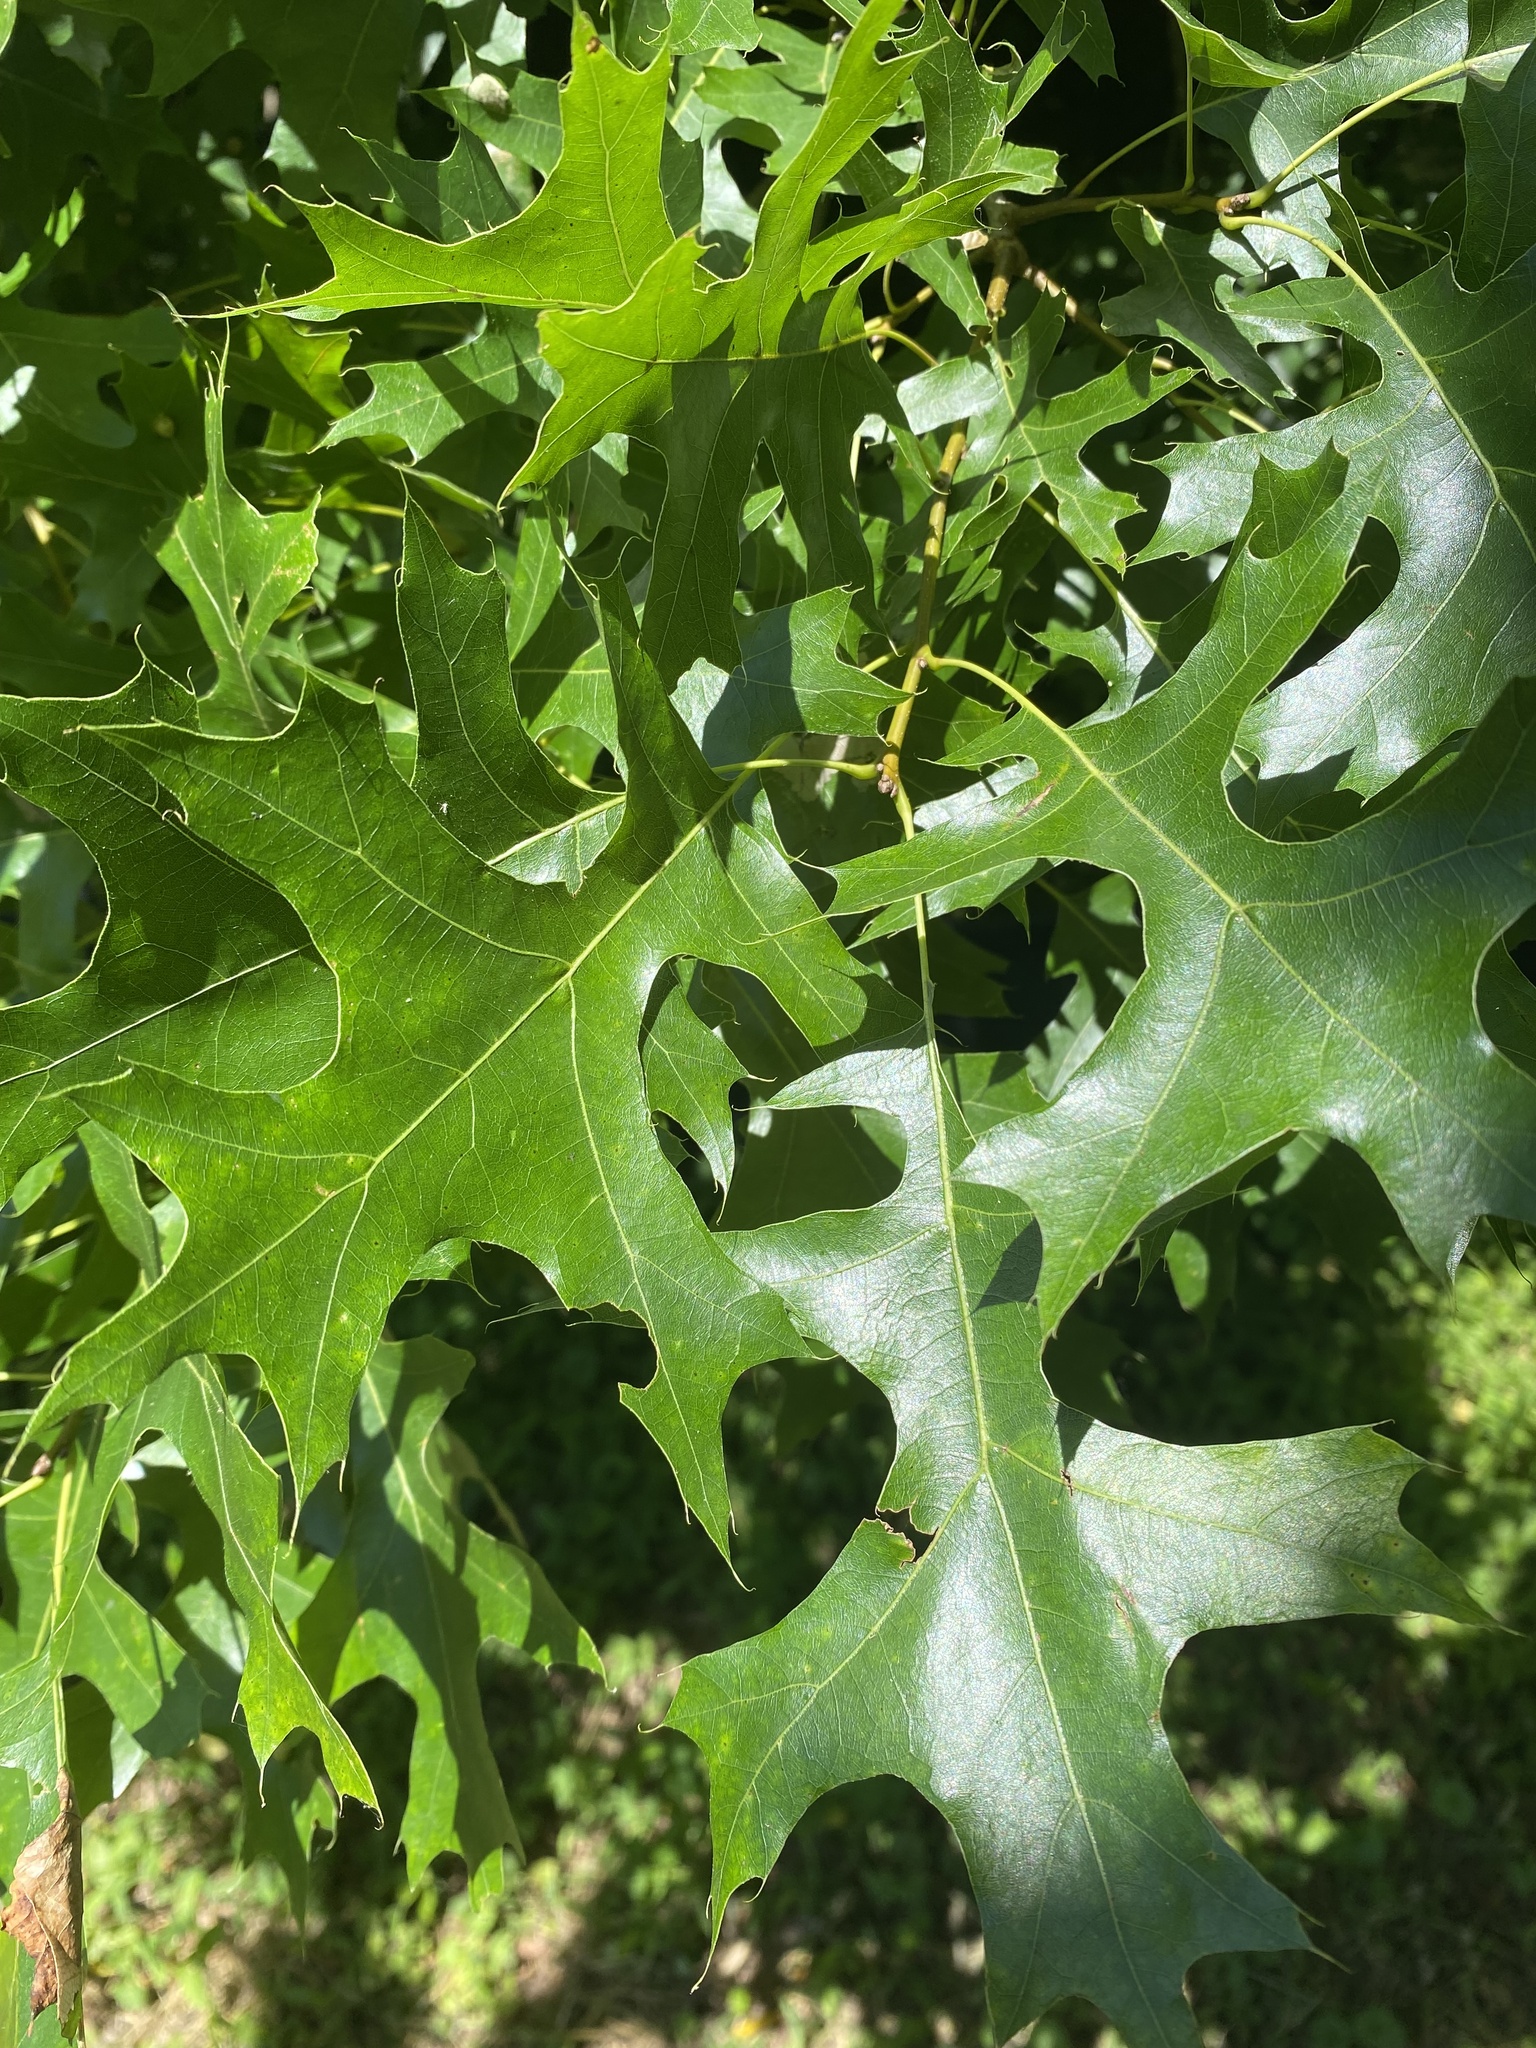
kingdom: Plantae
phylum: Tracheophyta
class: Magnoliopsida
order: Fagales
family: Fagaceae
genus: Quercus
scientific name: Quercus palustris
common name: Pin oak
